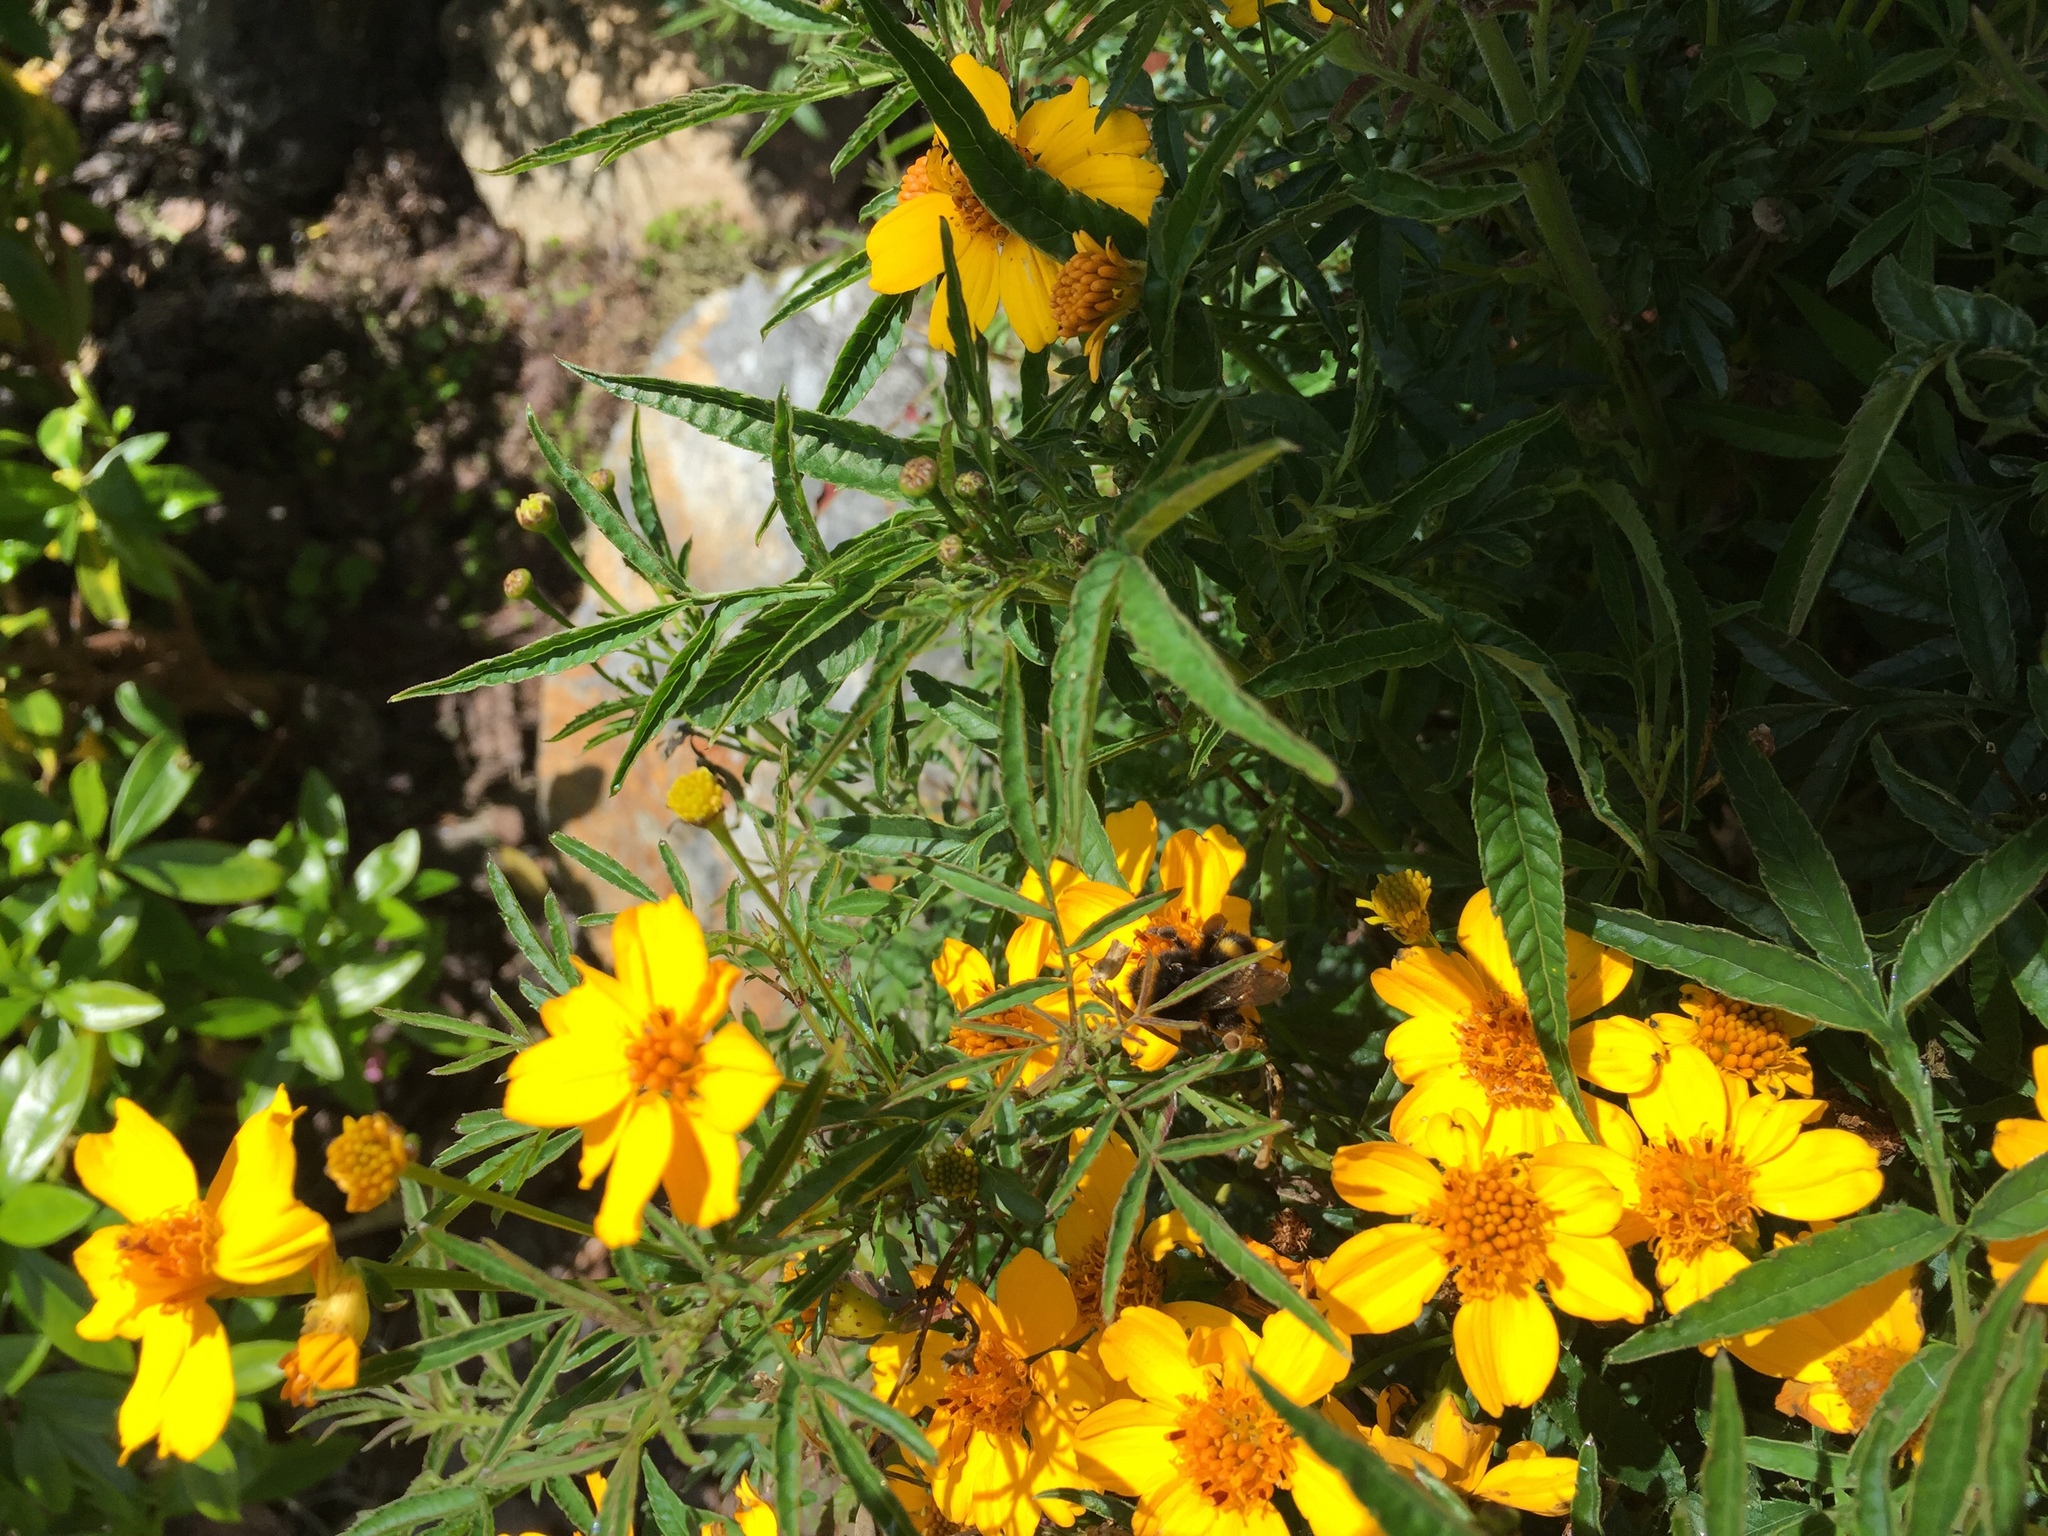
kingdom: Animalia
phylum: Arthropoda
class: Insecta
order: Hymenoptera
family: Apidae
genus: Bombus
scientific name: Bombus terrestris
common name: Buff-tailed bumblebee
